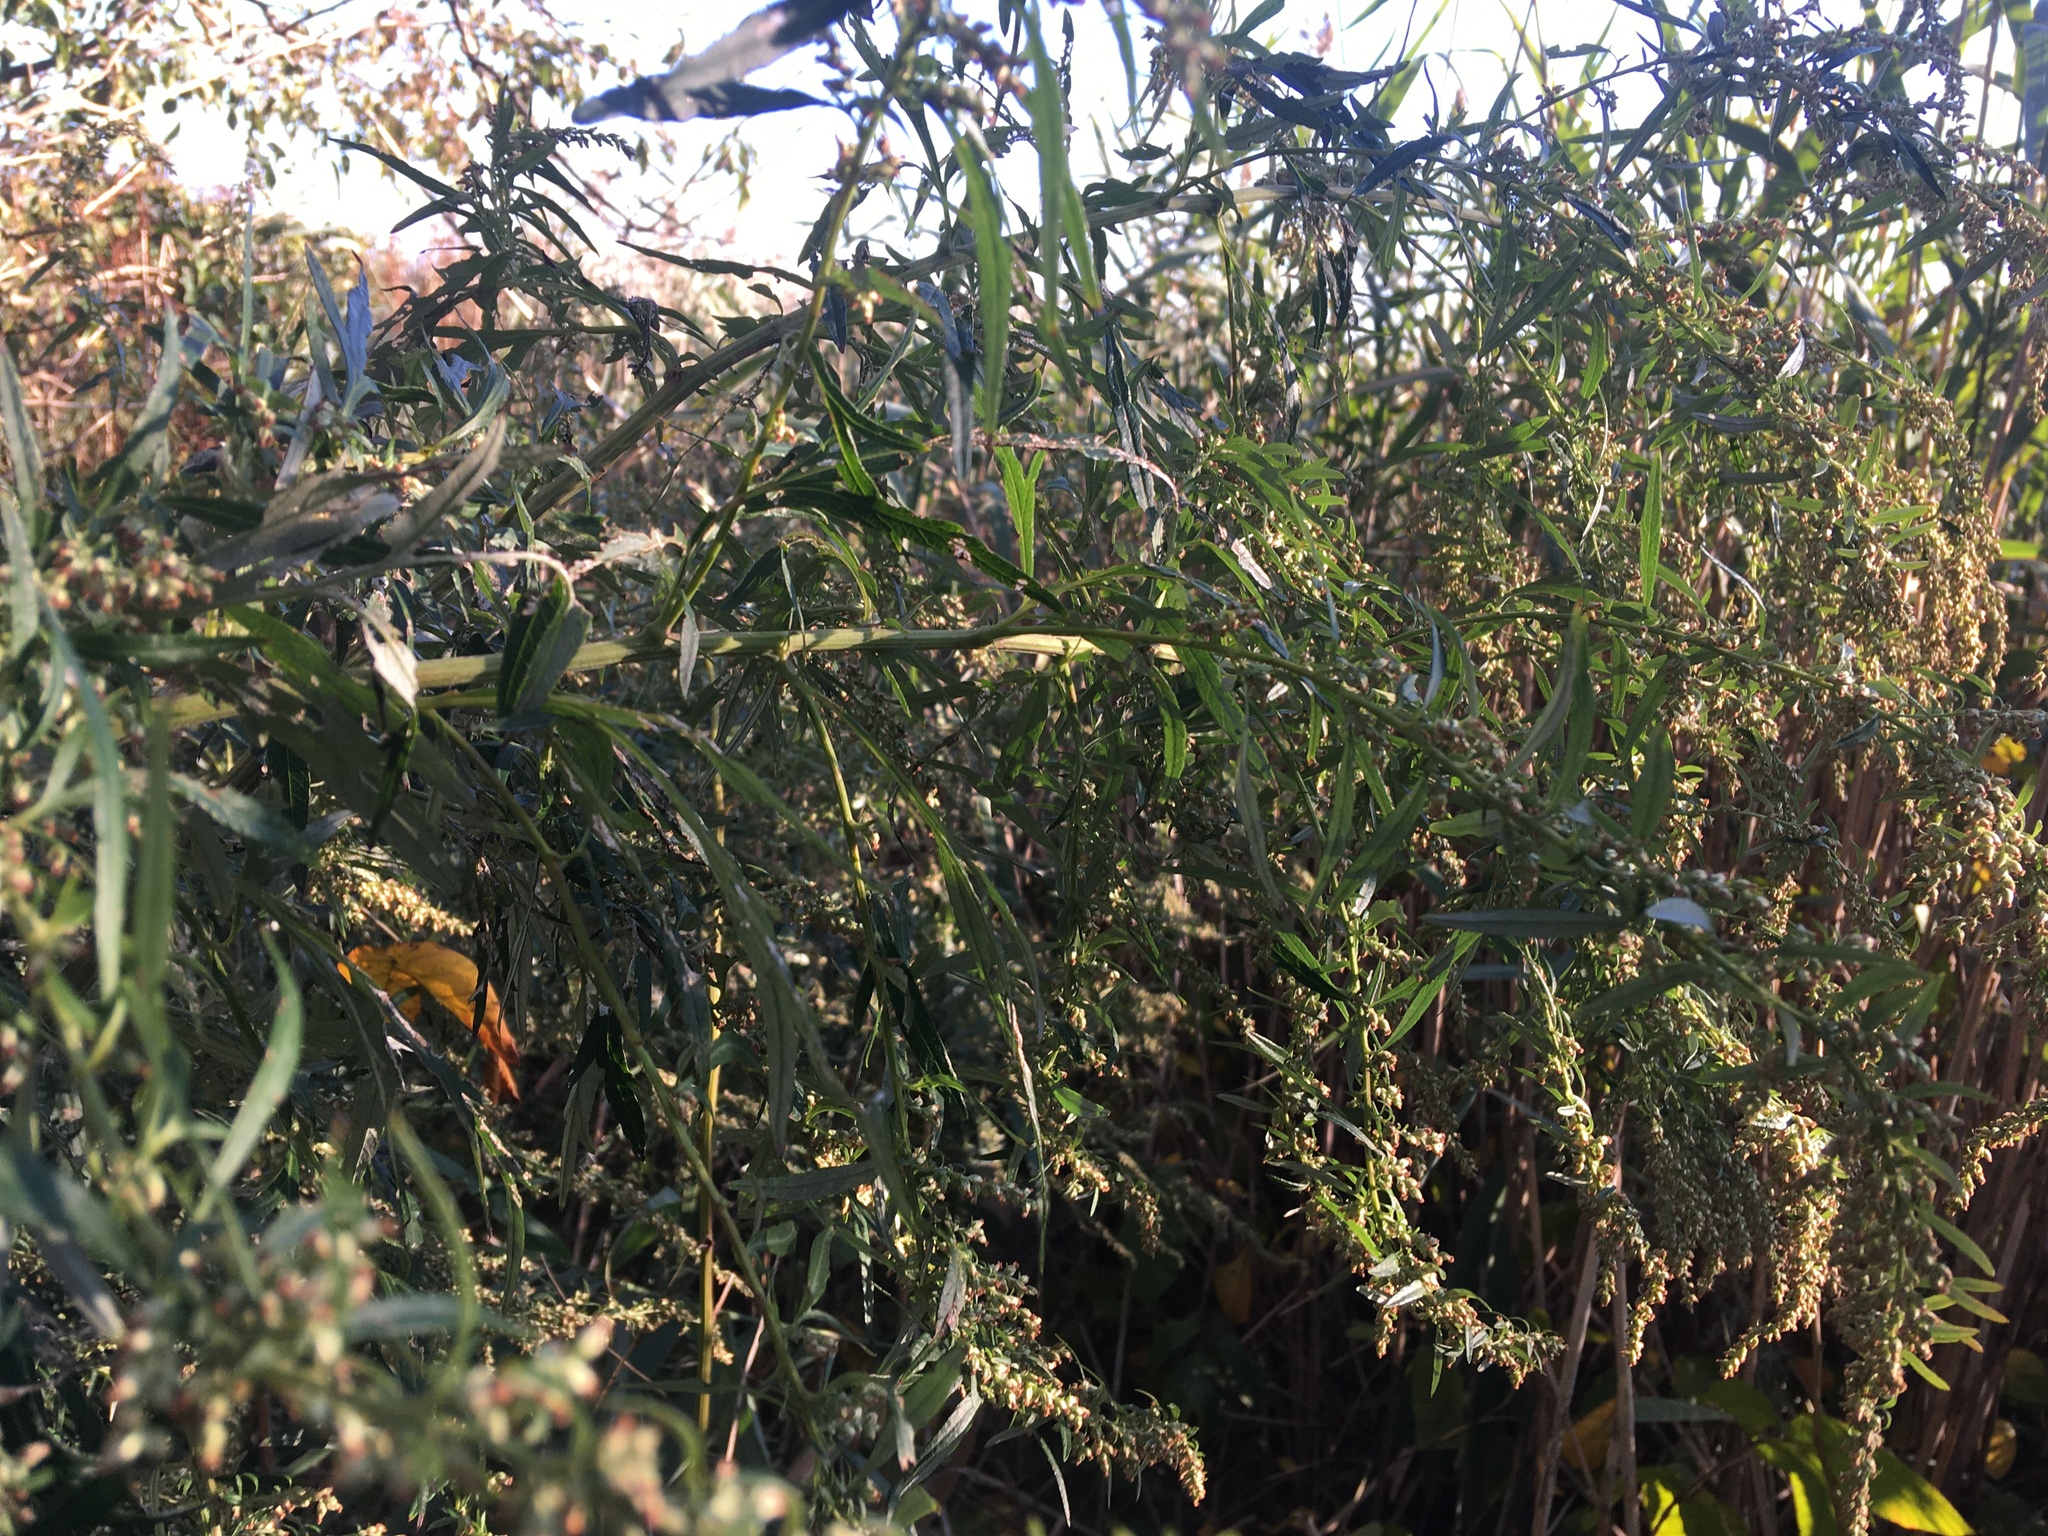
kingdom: Plantae
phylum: Tracheophyta
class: Magnoliopsida
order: Asterales
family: Asteraceae
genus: Artemisia
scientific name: Artemisia vulgaris
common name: Mugwort
